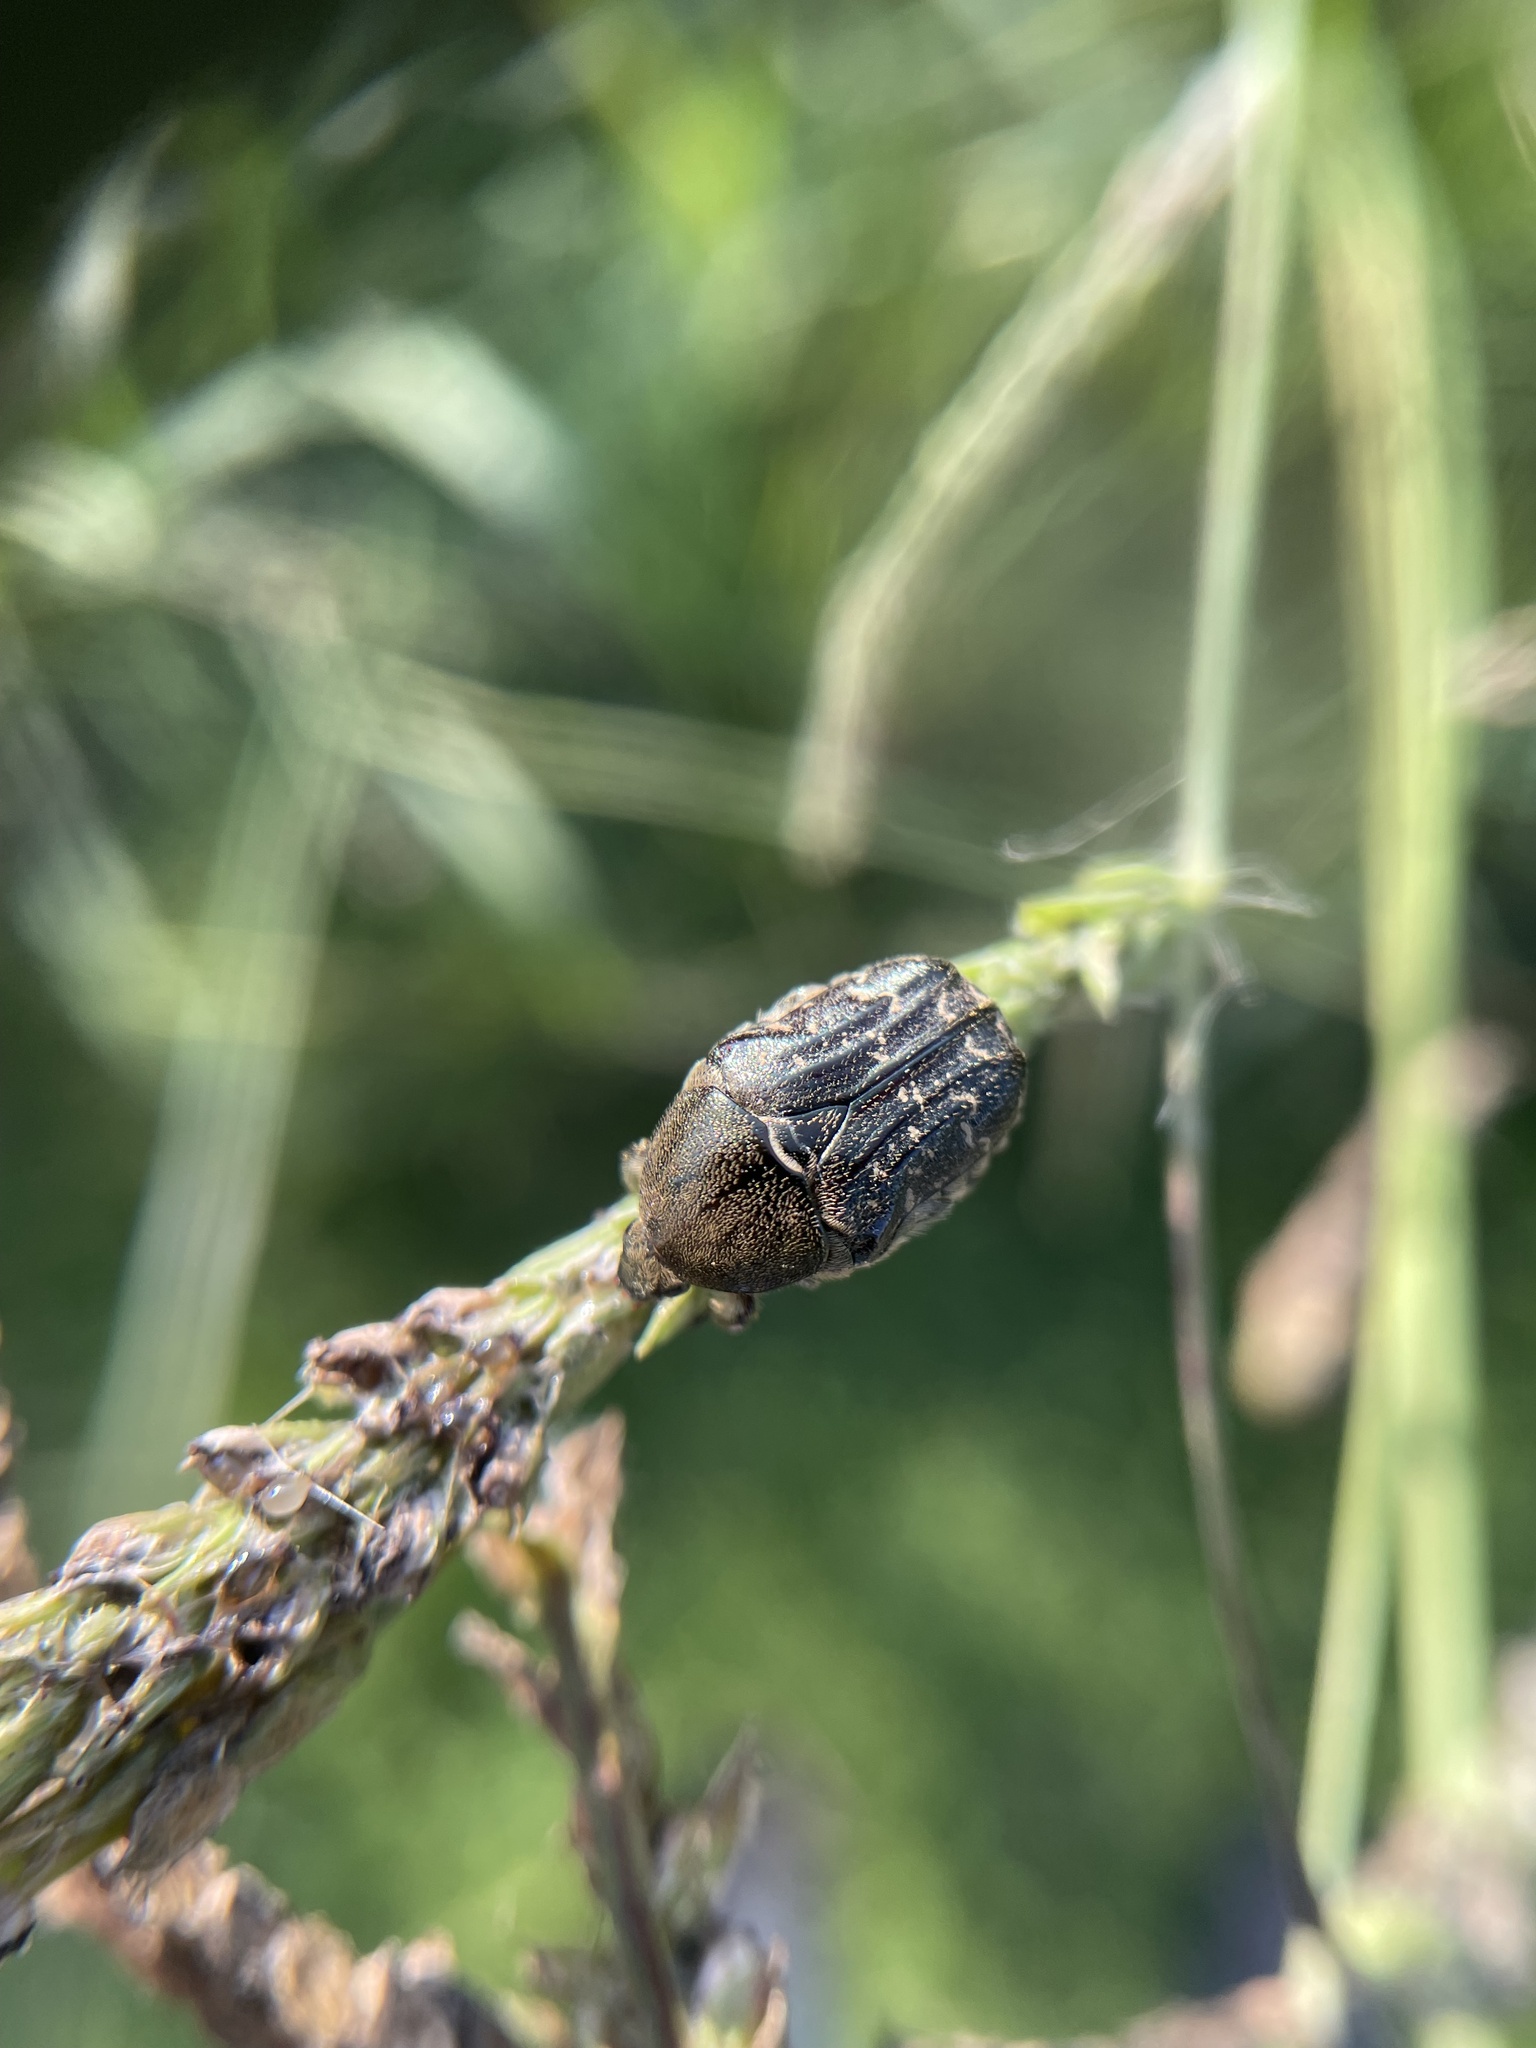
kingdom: Animalia
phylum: Arthropoda
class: Insecta
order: Coleoptera
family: Scarabaeidae
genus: Euphoria
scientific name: Euphoria sepulcralis
